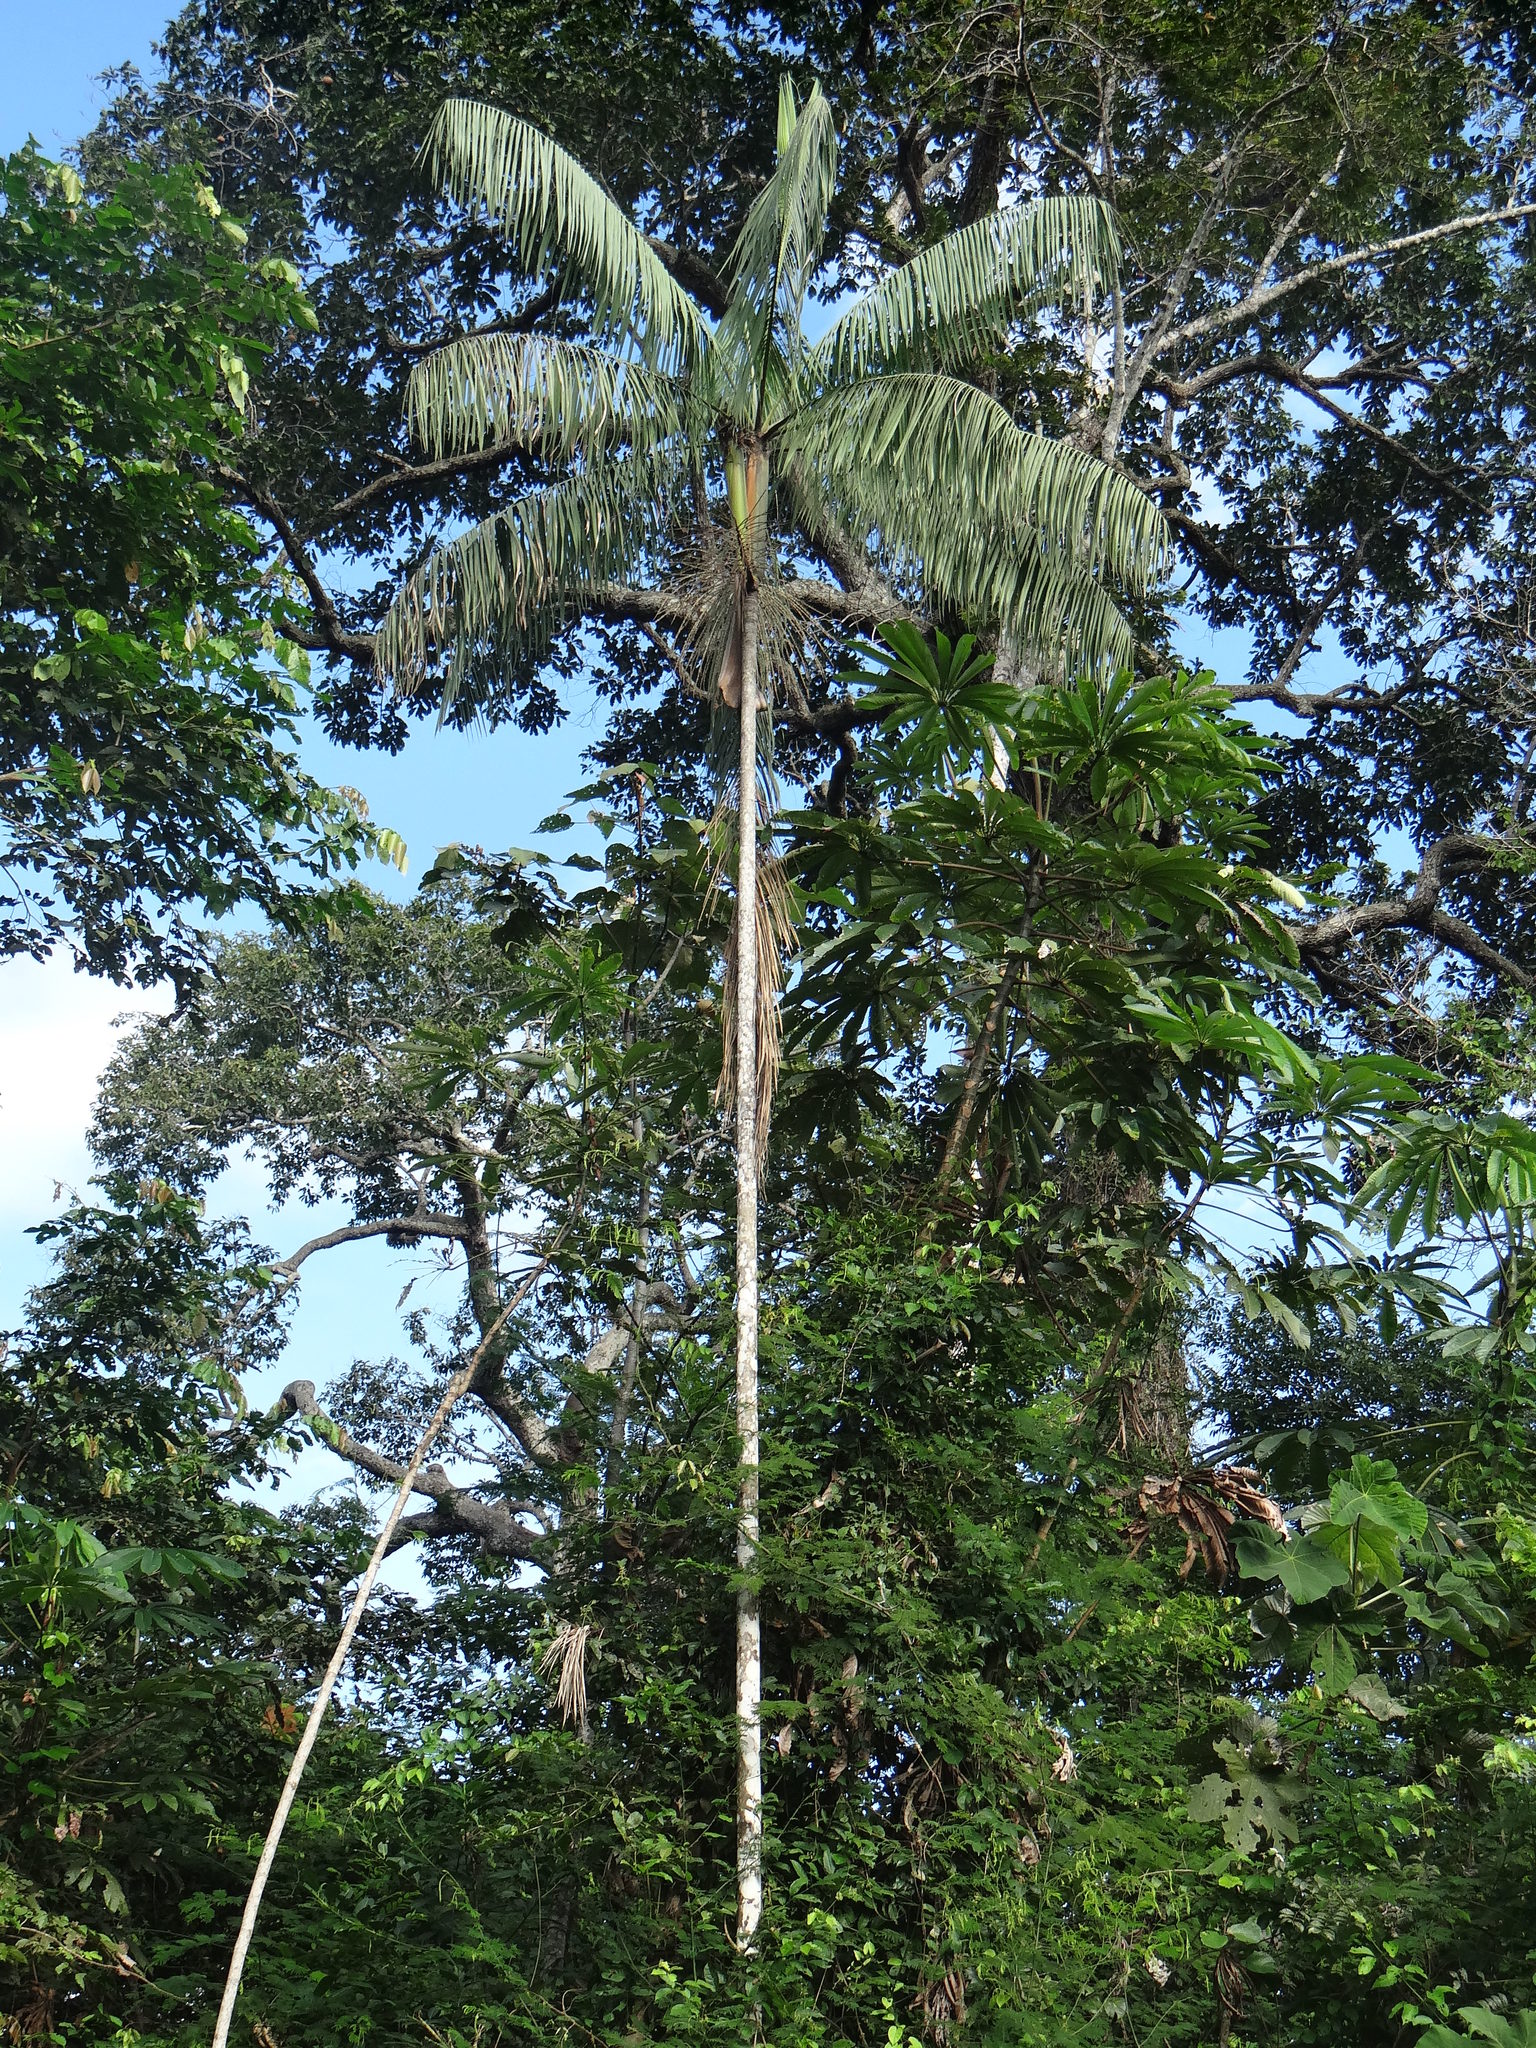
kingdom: Plantae
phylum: Tracheophyta
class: Liliopsida
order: Arecales
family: Arecaceae
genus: Euterpe
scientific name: Euterpe precatoria
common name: Mountain-cabbage
